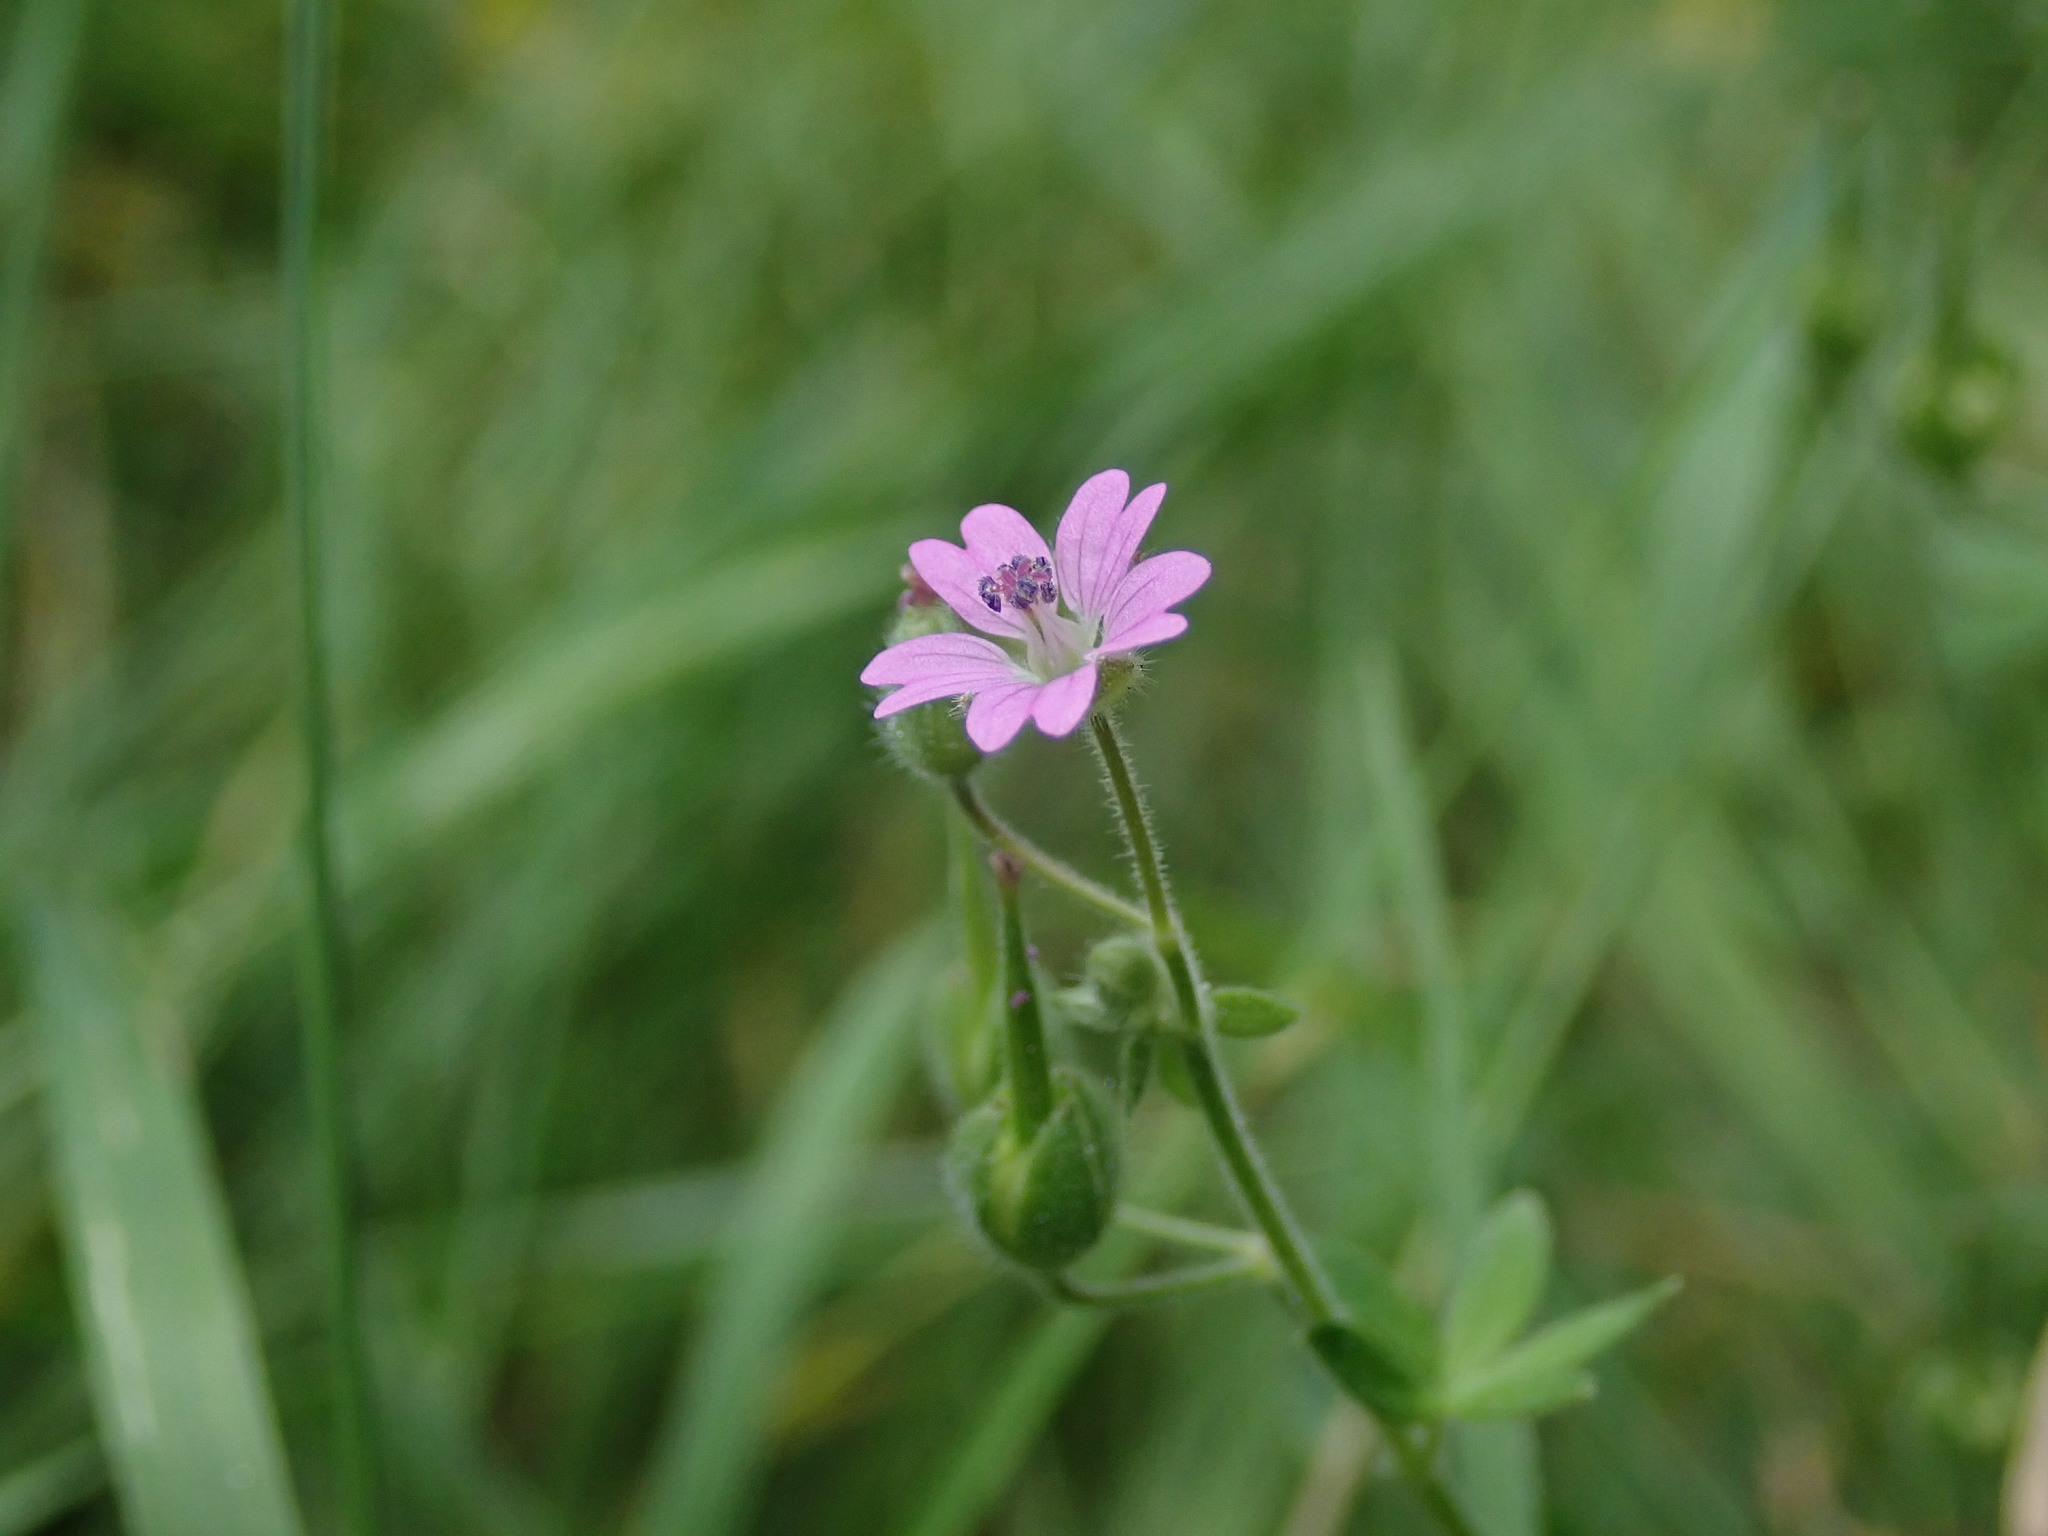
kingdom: Plantae
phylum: Tracheophyta
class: Magnoliopsida
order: Geraniales
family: Geraniaceae
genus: Geranium
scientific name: Geranium molle
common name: Dove's-foot crane's-bill
